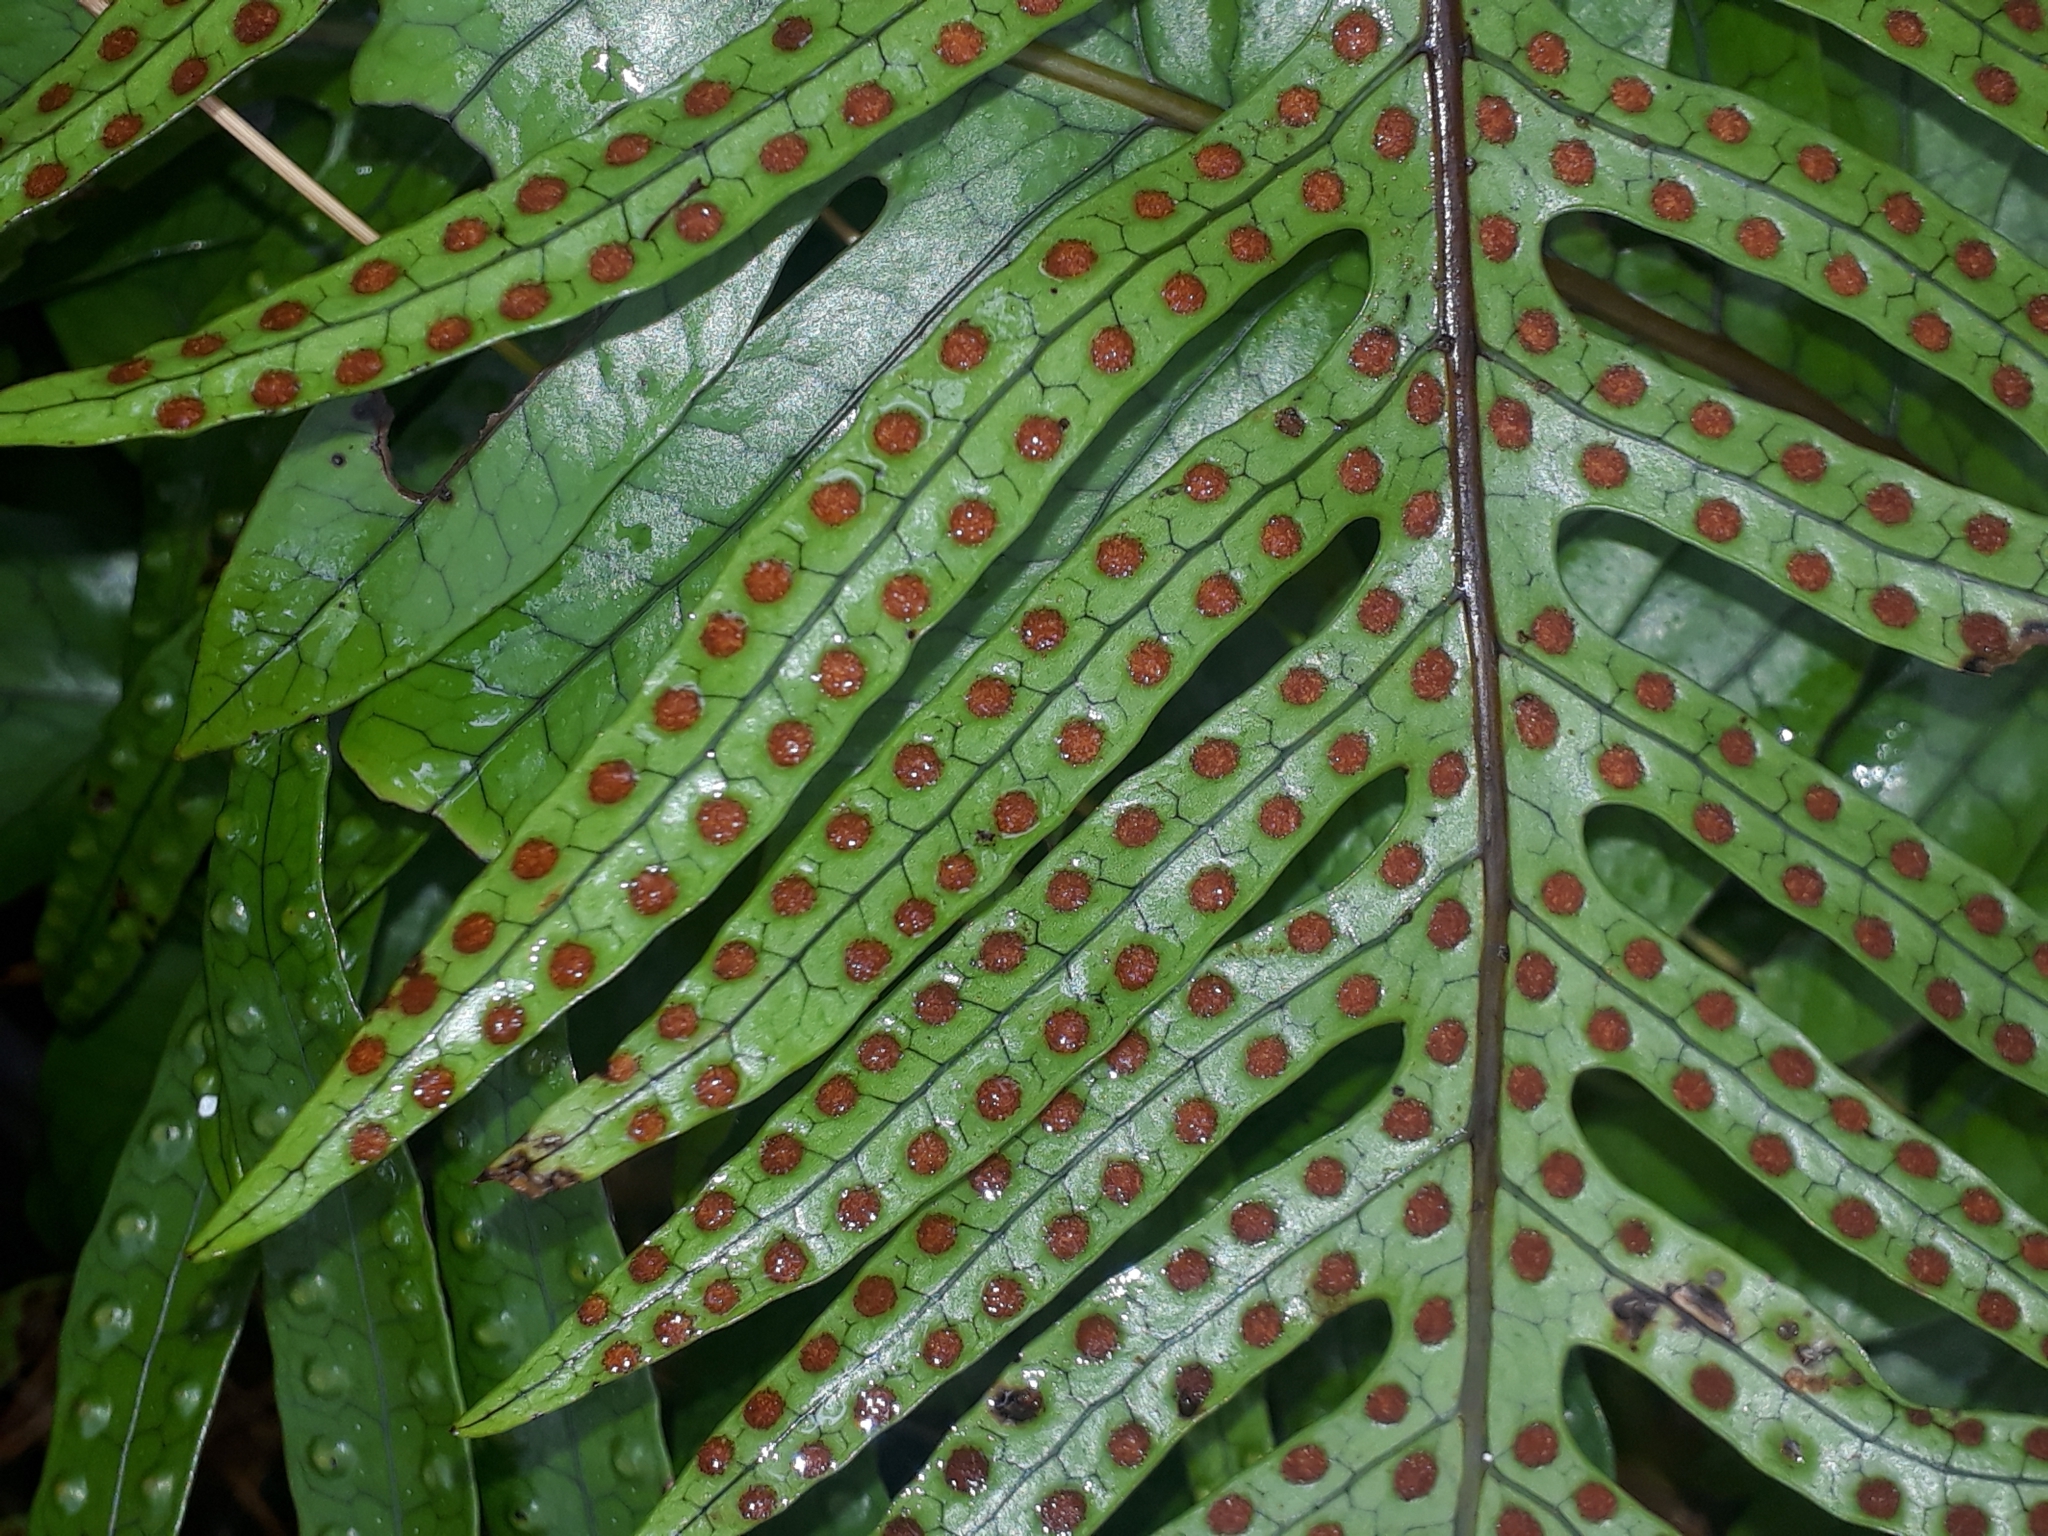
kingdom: Plantae
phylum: Tracheophyta
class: Polypodiopsida
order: Polypodiales
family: Polypodiaceae
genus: Lecanopteris
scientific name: Lecanopteris pustulata
